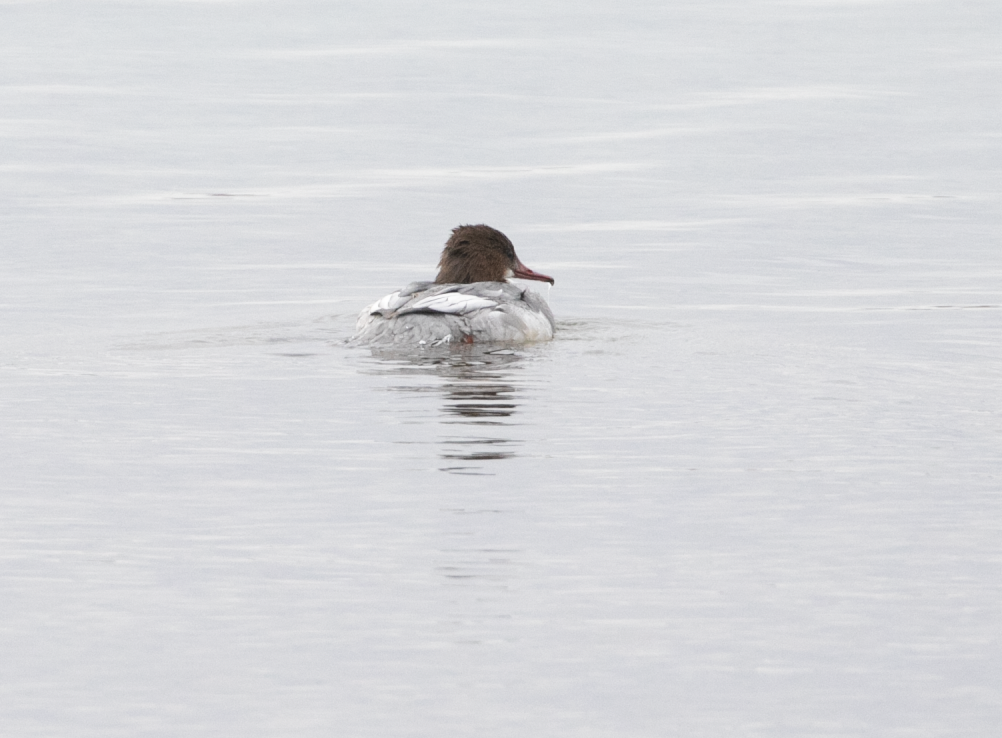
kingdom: Animalia
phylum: Chordata
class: Aves
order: Anseriformes
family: Anatidae
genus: Mergus
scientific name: Mergus merganser
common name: Common merganser
